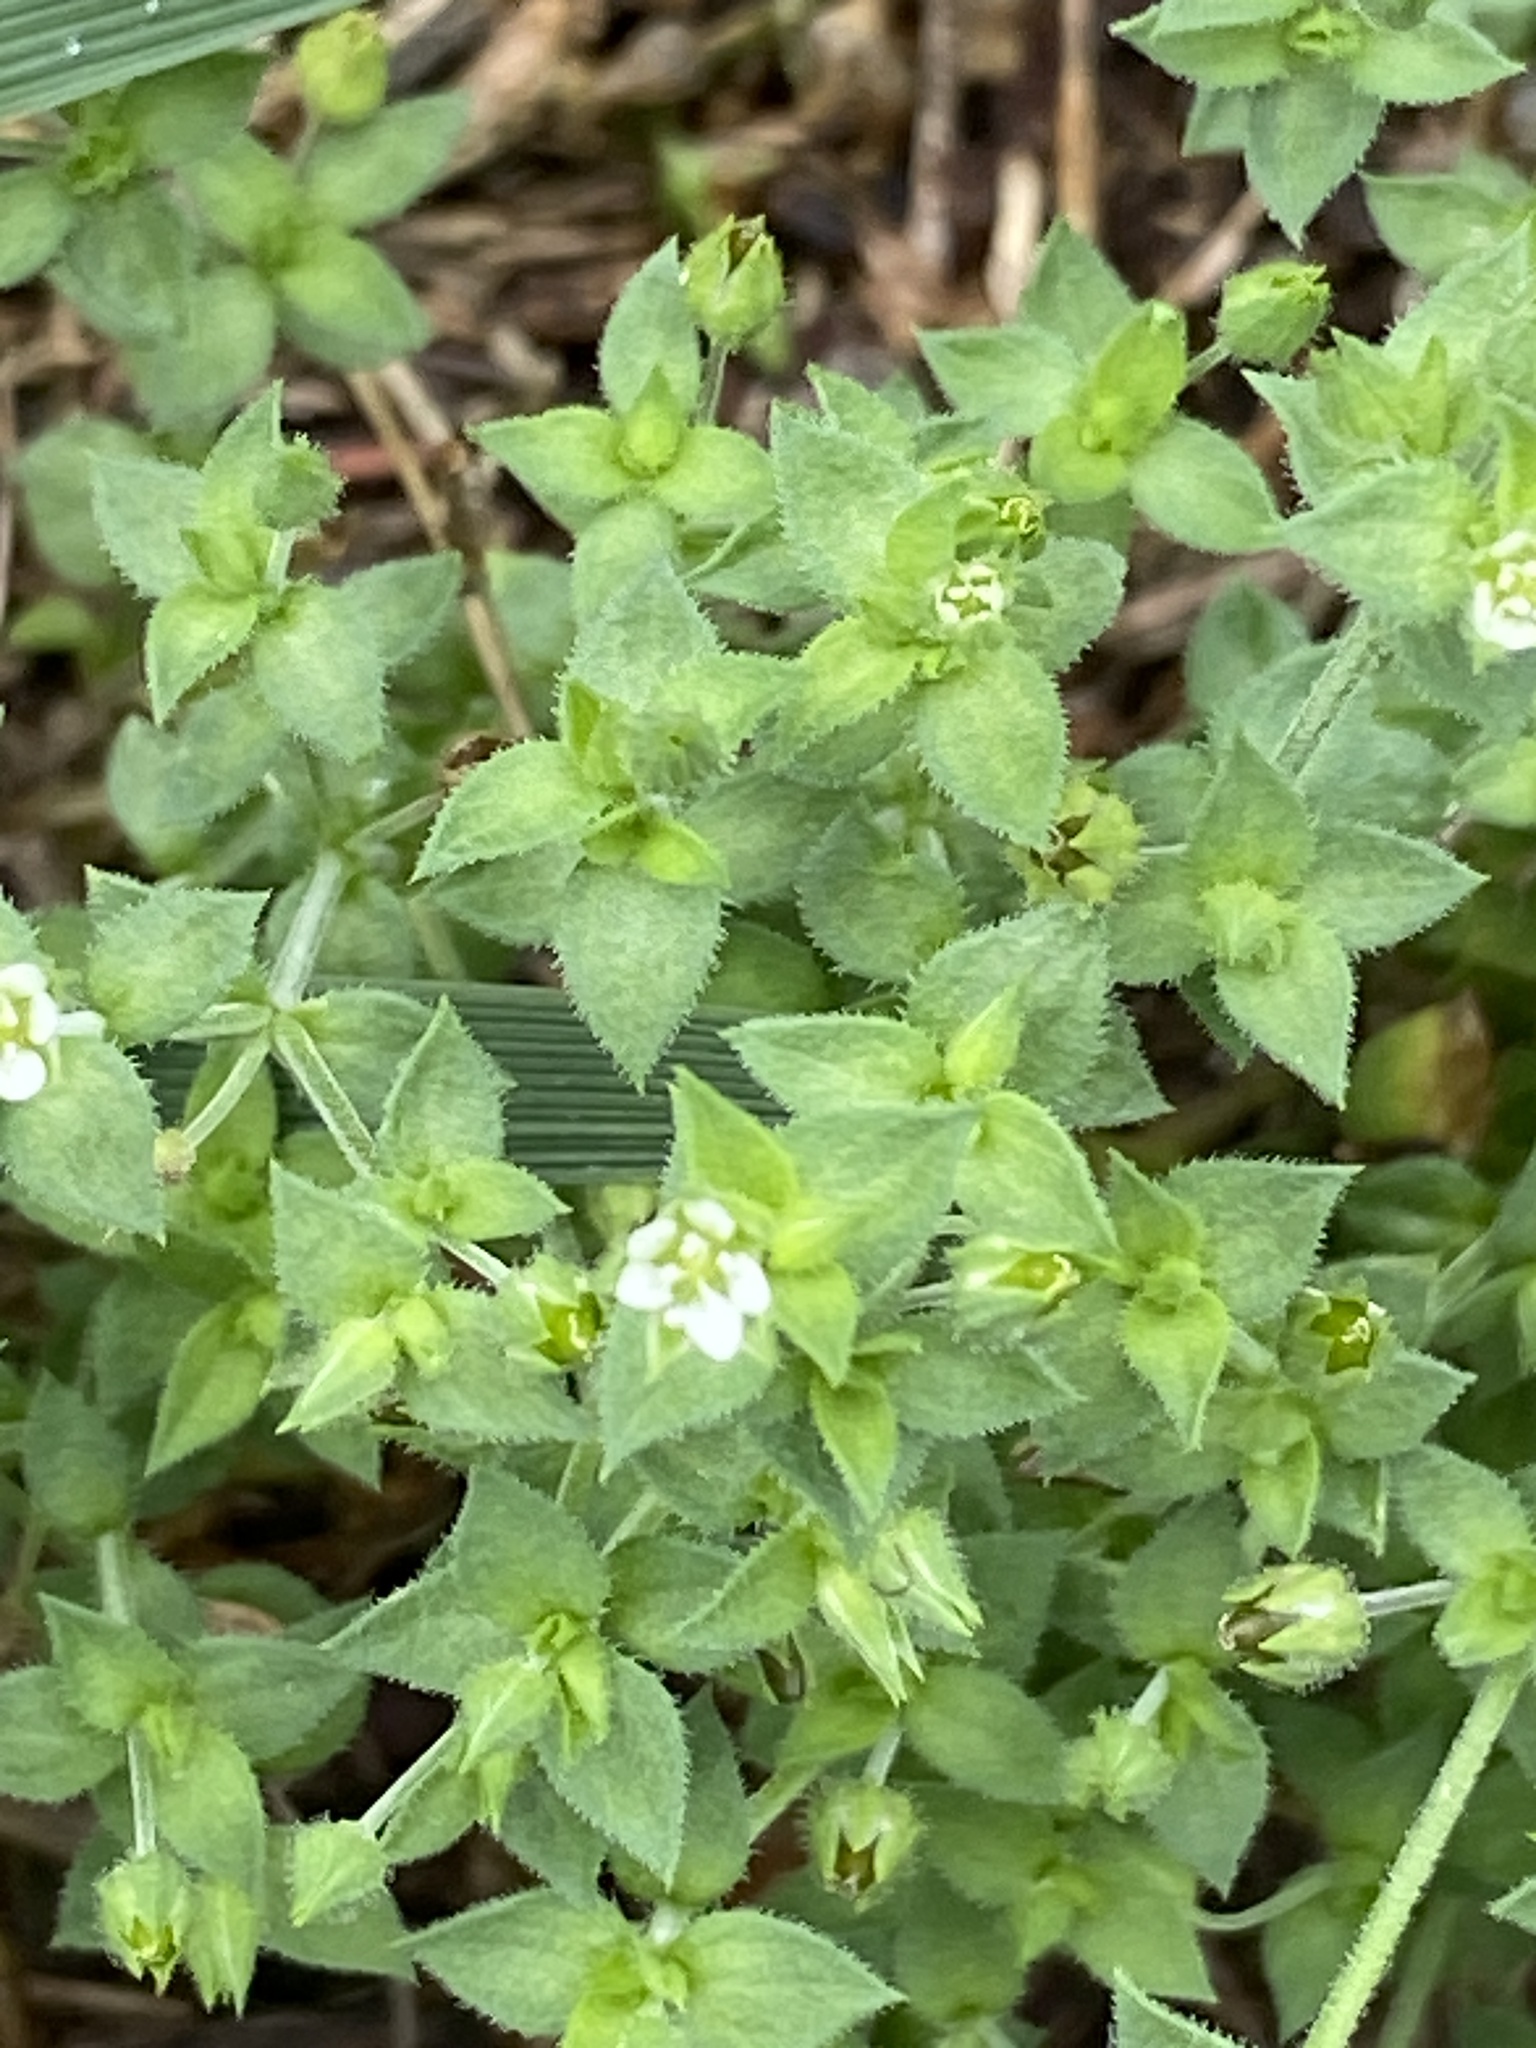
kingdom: Plantae
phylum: Tracheophyta
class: Magnoliopsida
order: Caryophyllales
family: Caryophyllaceae
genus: Arenaria
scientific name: Arenaria serpyllifolia
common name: Thyme-leaved sandwort
